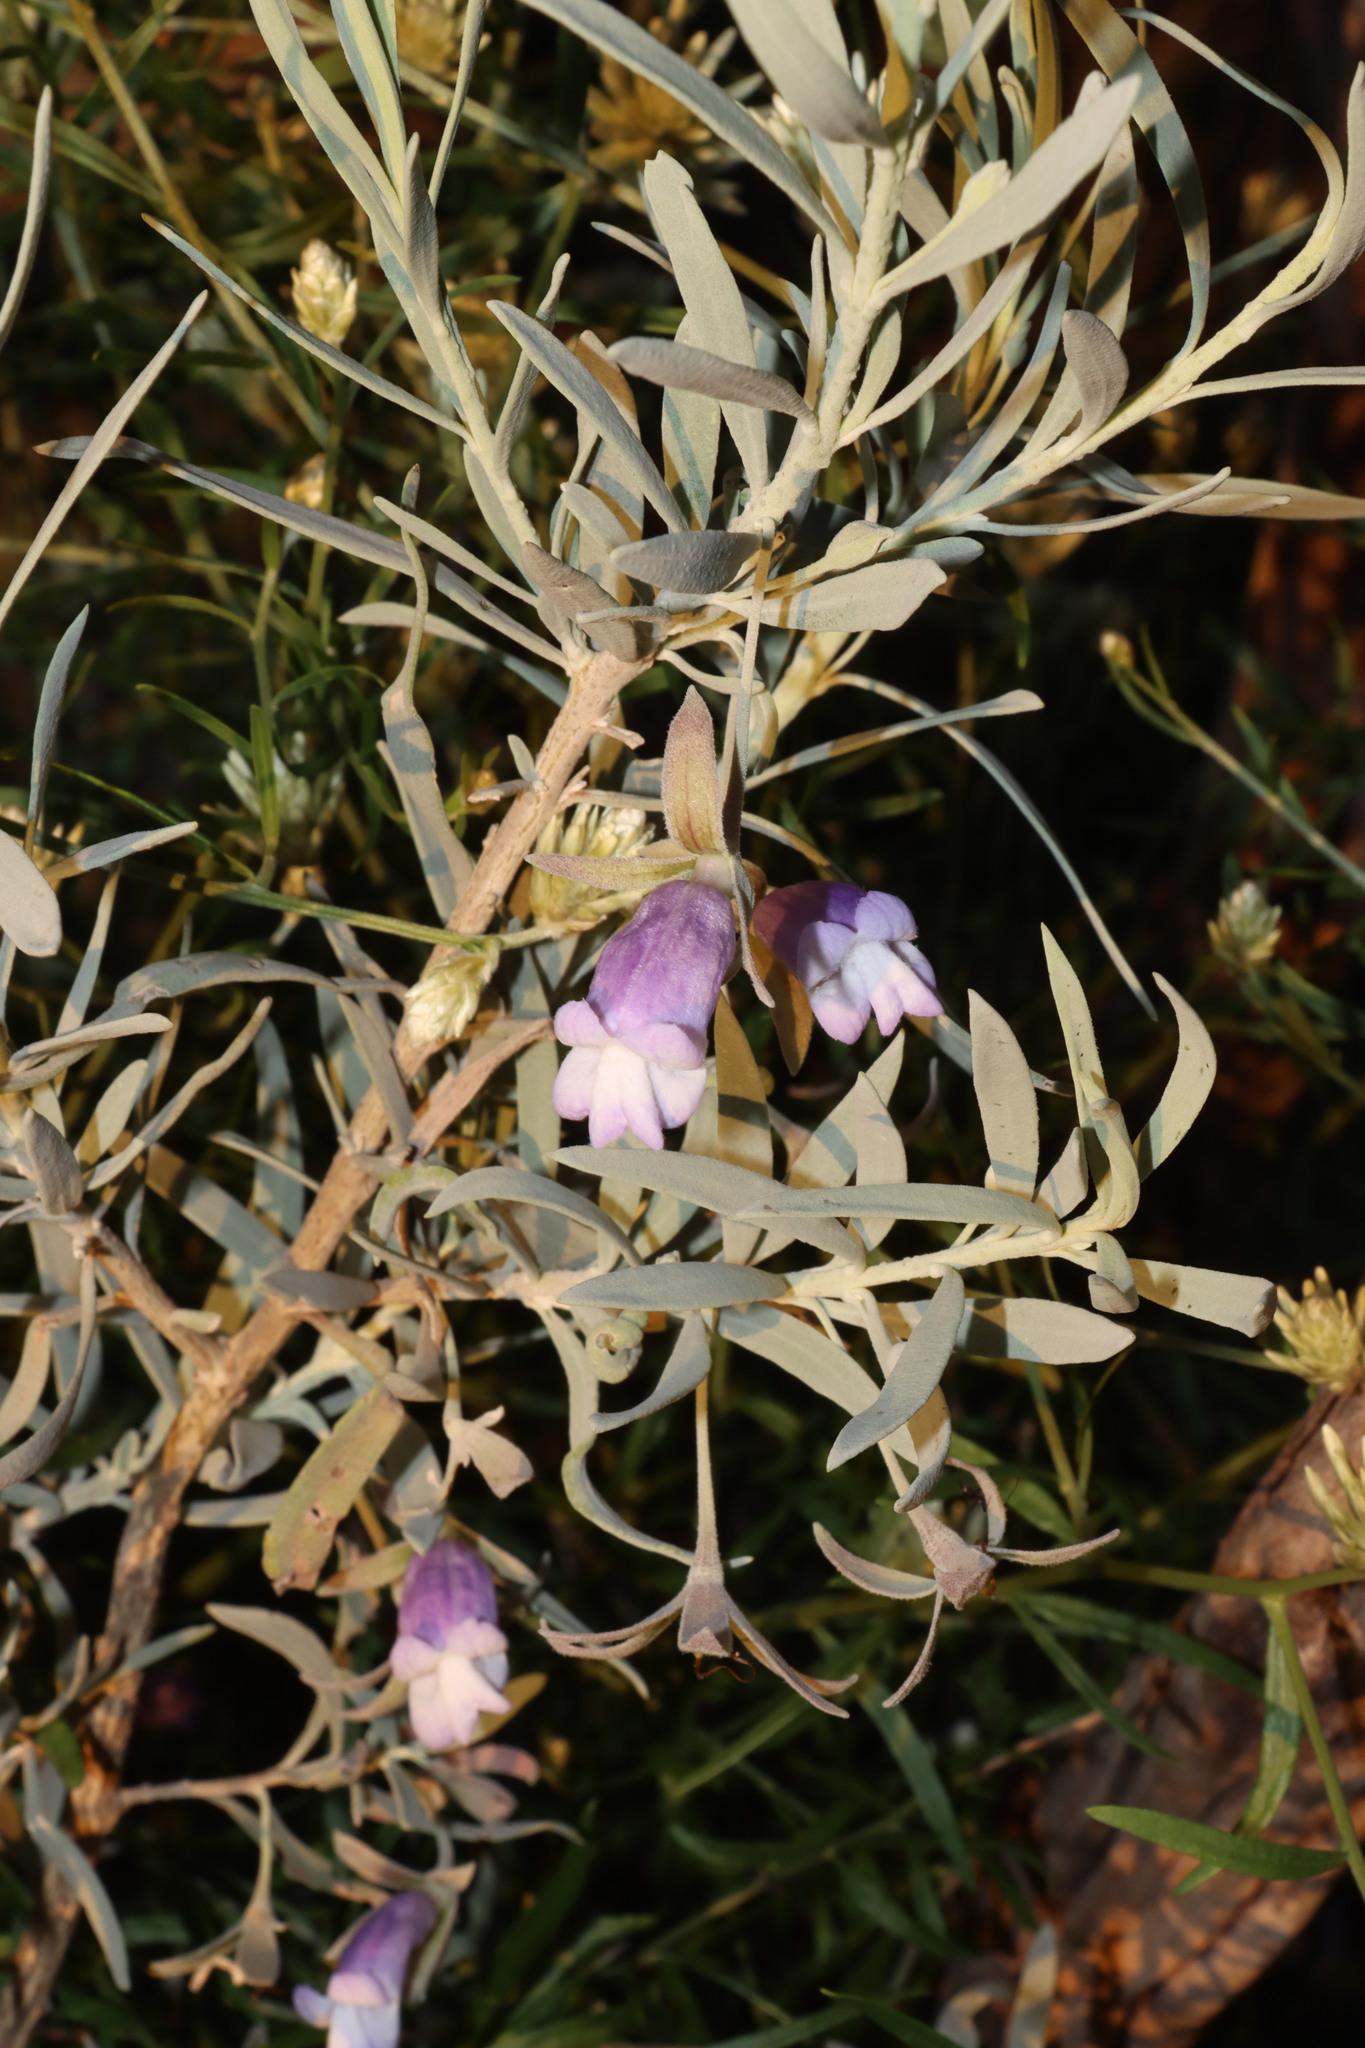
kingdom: Plantae
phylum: Tracheophyta
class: Magnoliopsida
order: Lamiales
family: Scrophulariaceae
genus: Eremophila
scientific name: Eremophila maitlandii
